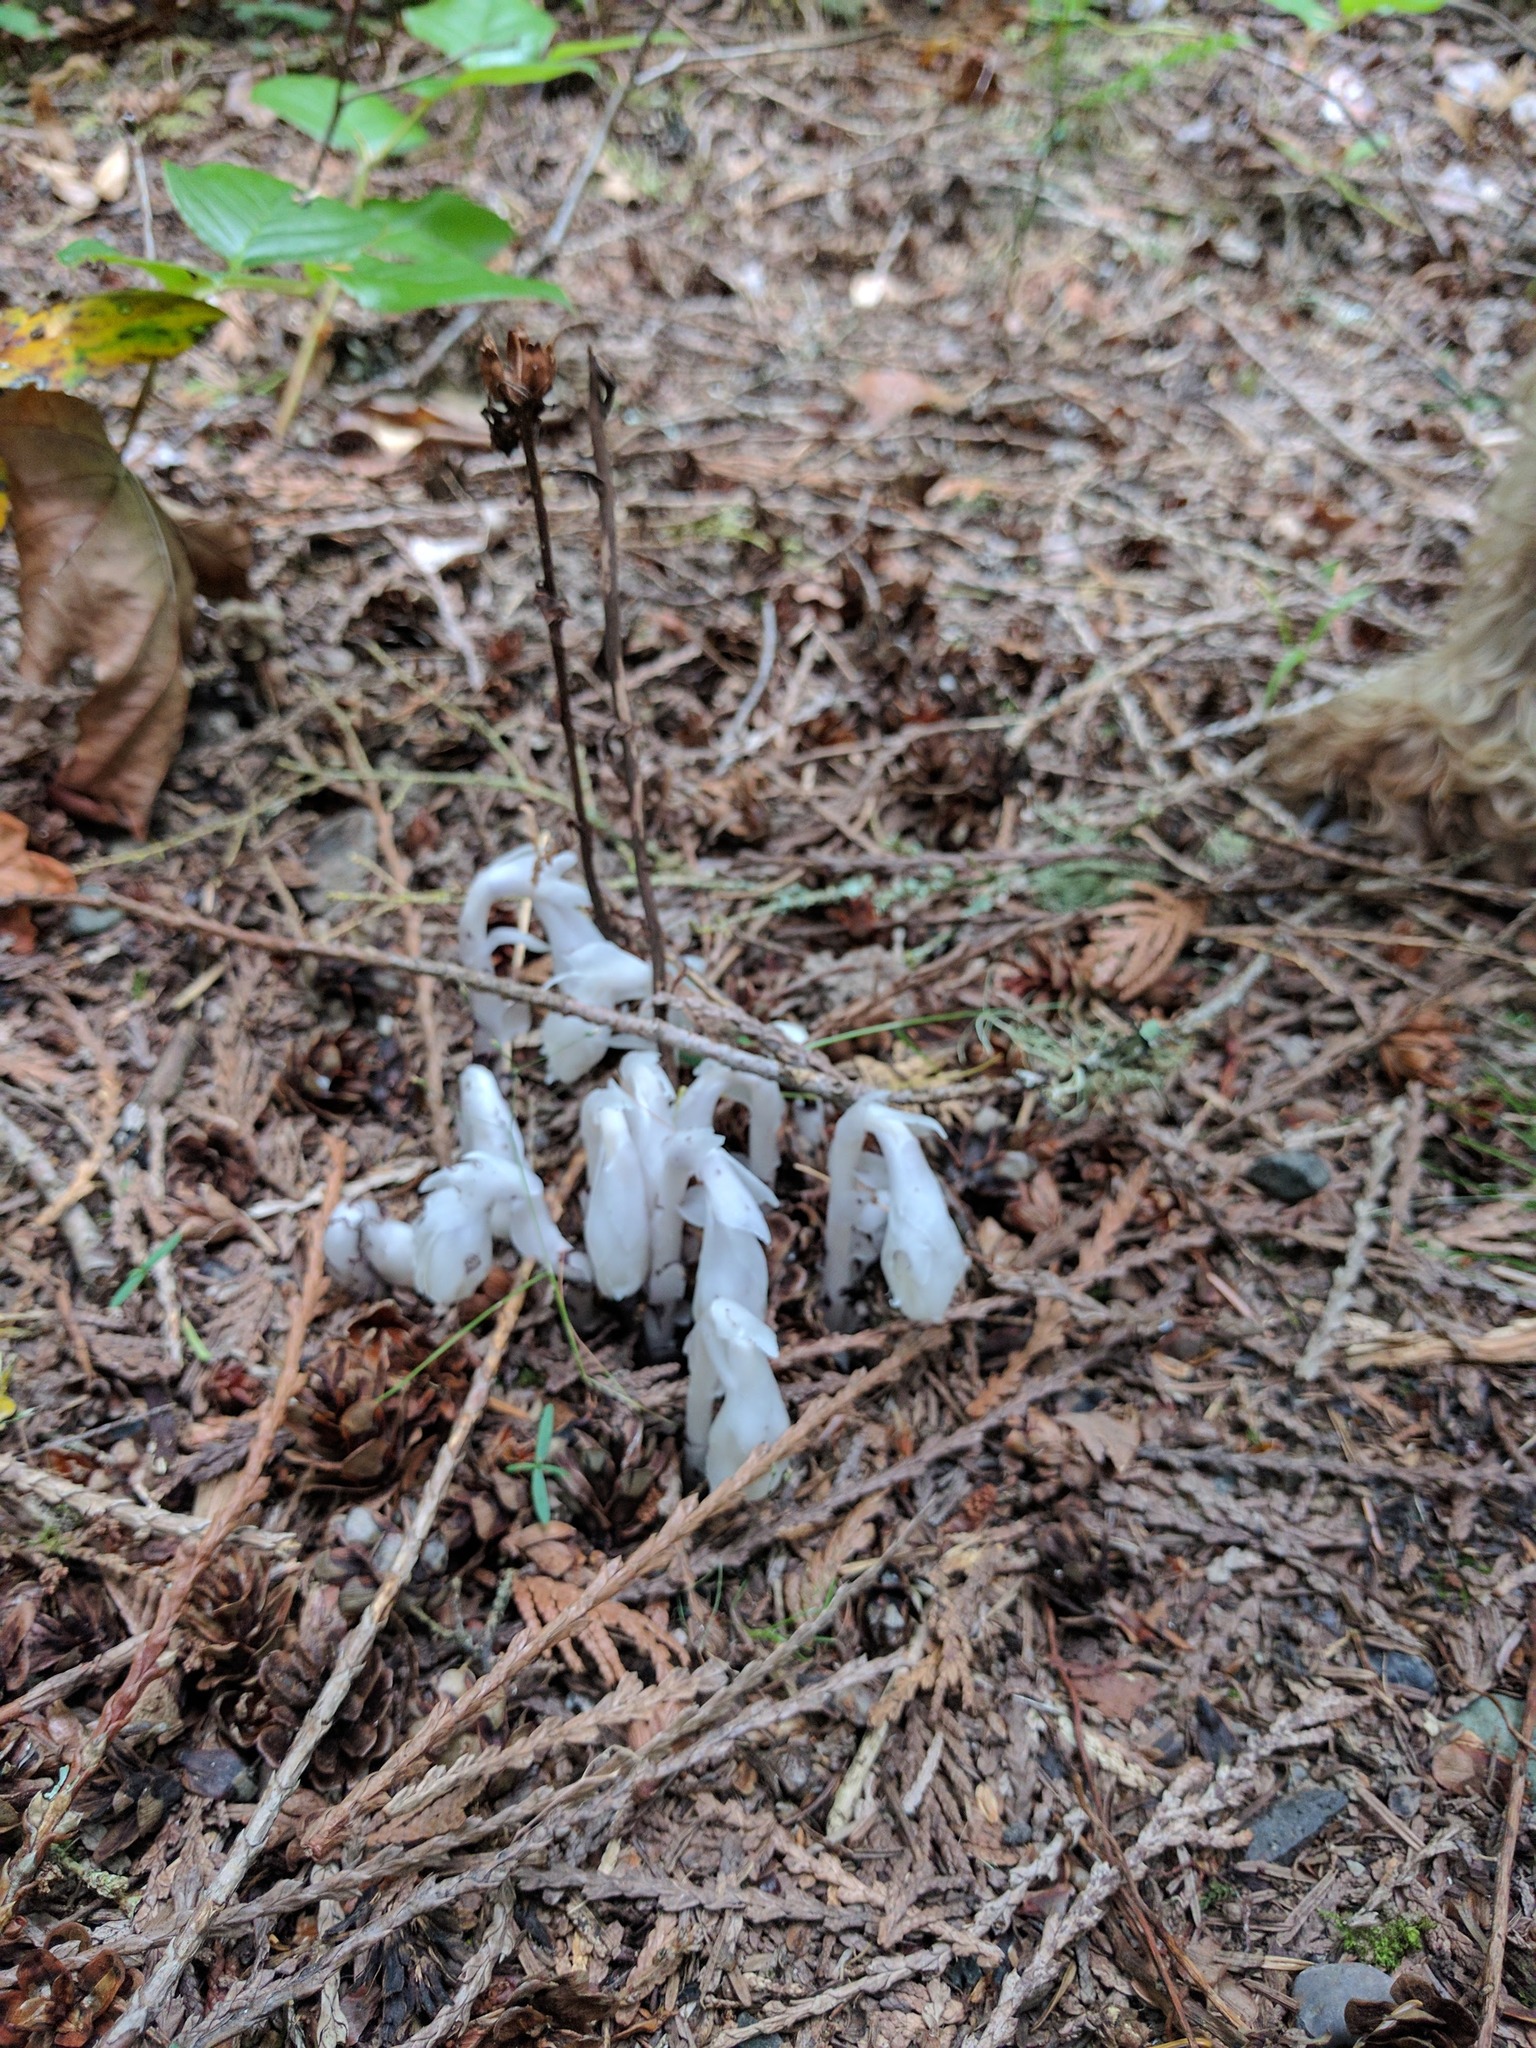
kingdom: Plantae
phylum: Tracheophyta
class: Magnoliopsida
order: Ericales
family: Ericaceae
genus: Monotropa
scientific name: Monotropa uniflora
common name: Convulsion root
